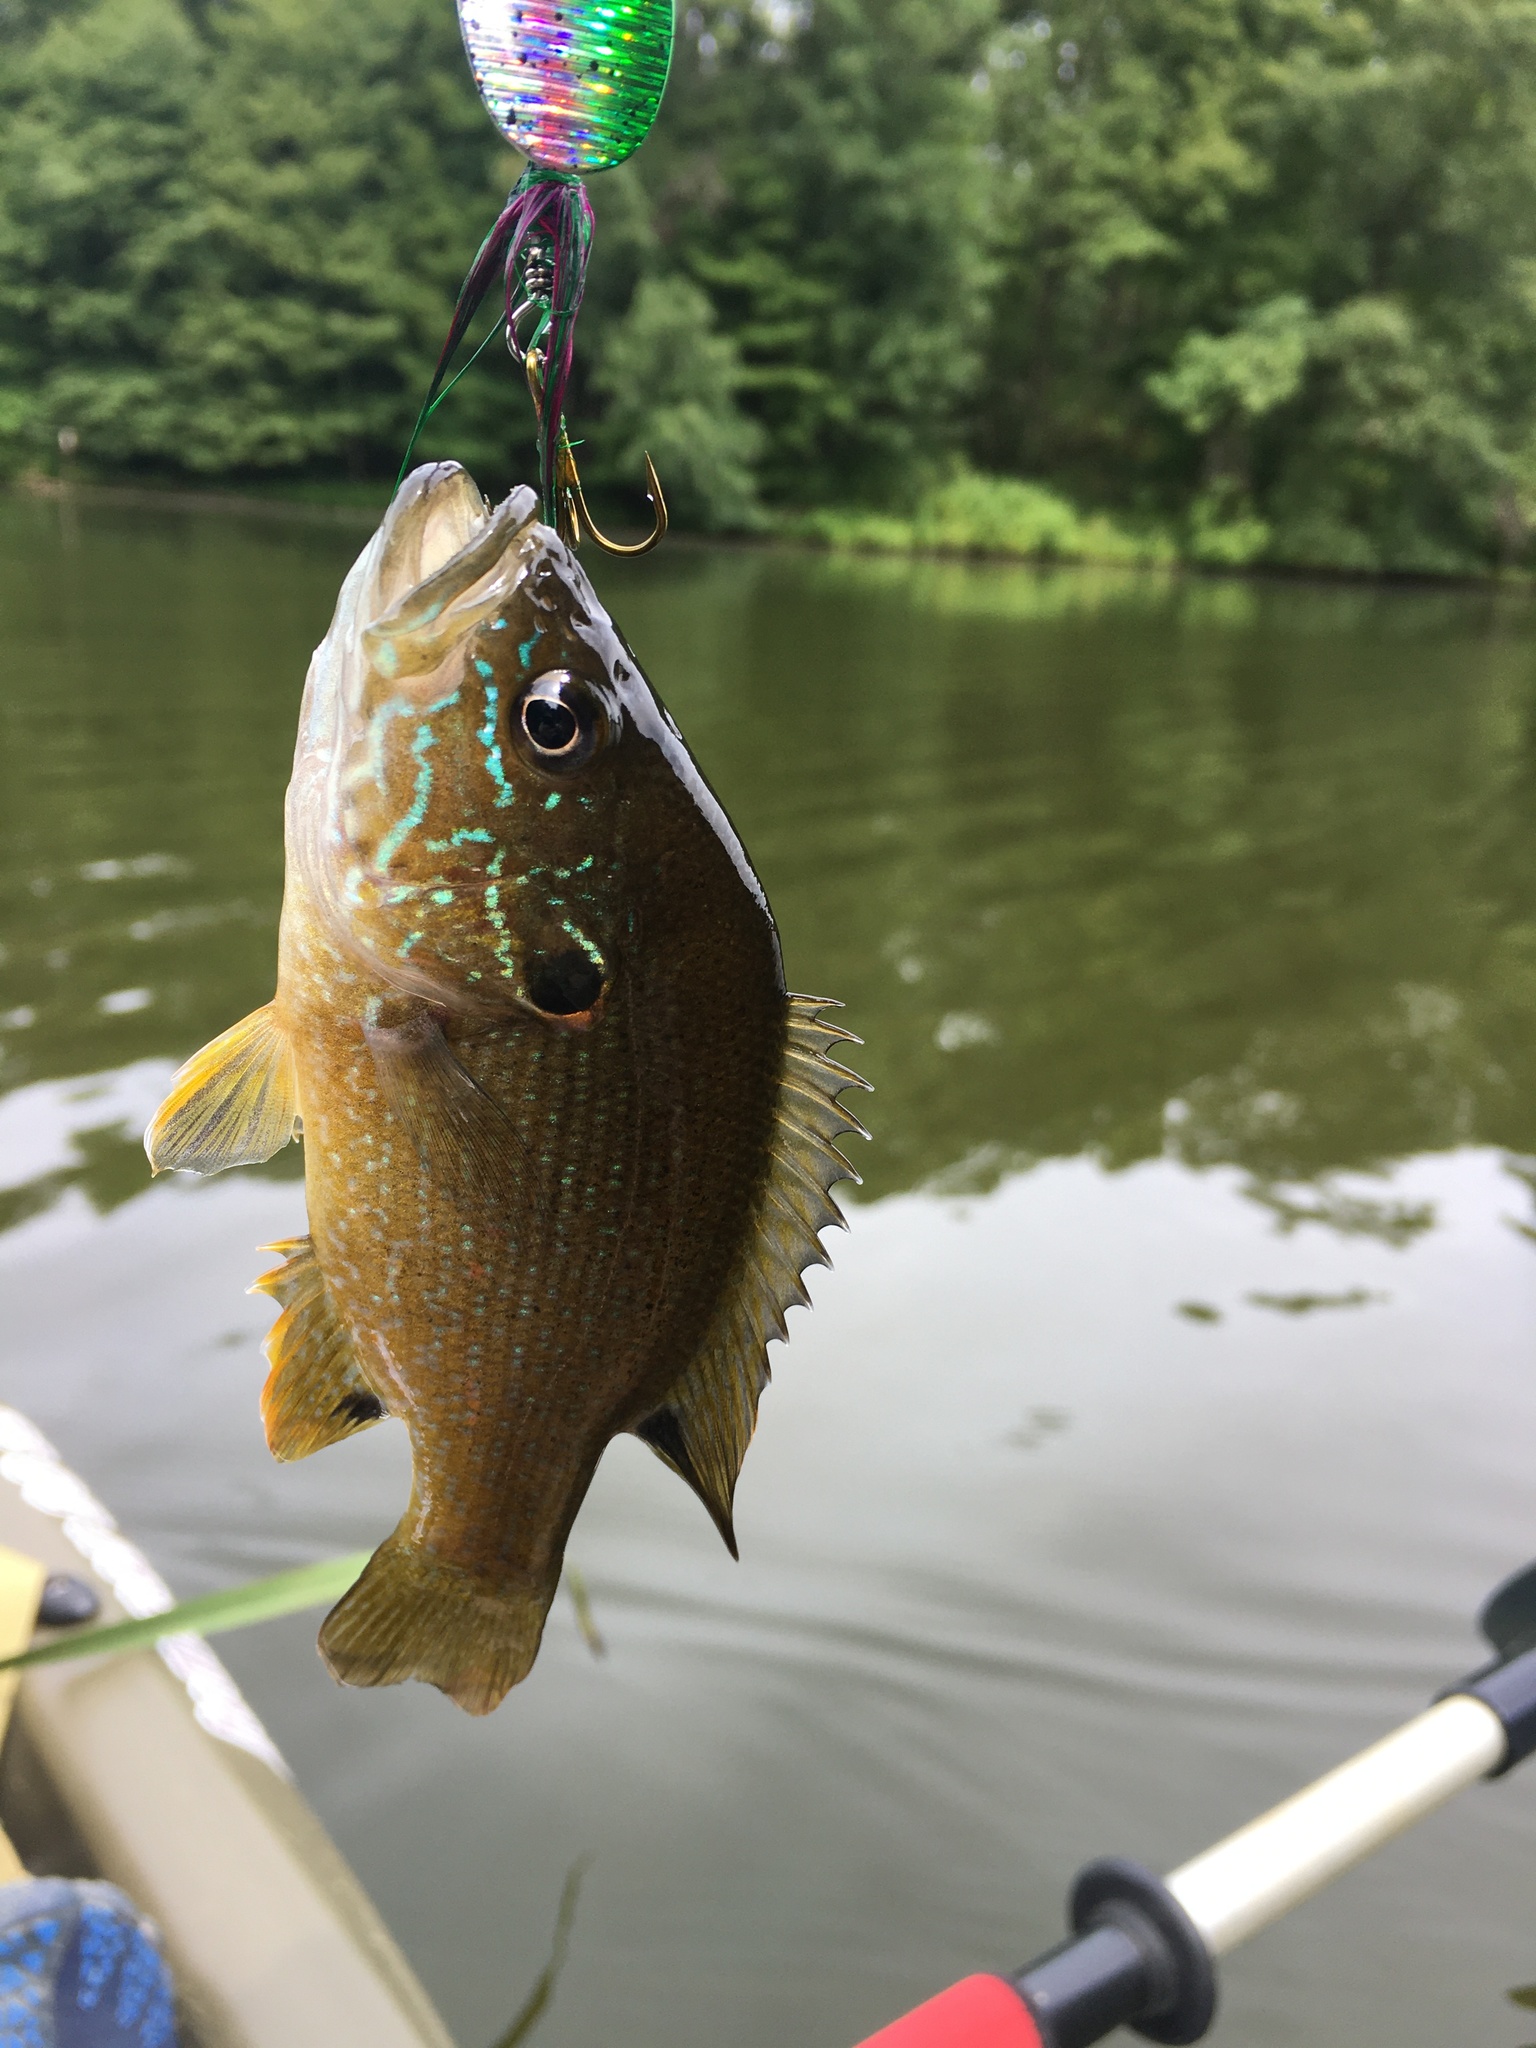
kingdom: Animalia
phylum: Chordata
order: Perciformes
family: Centrarchidae
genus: Lepomis
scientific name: Lepomis cyanellus
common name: Green sunfish
